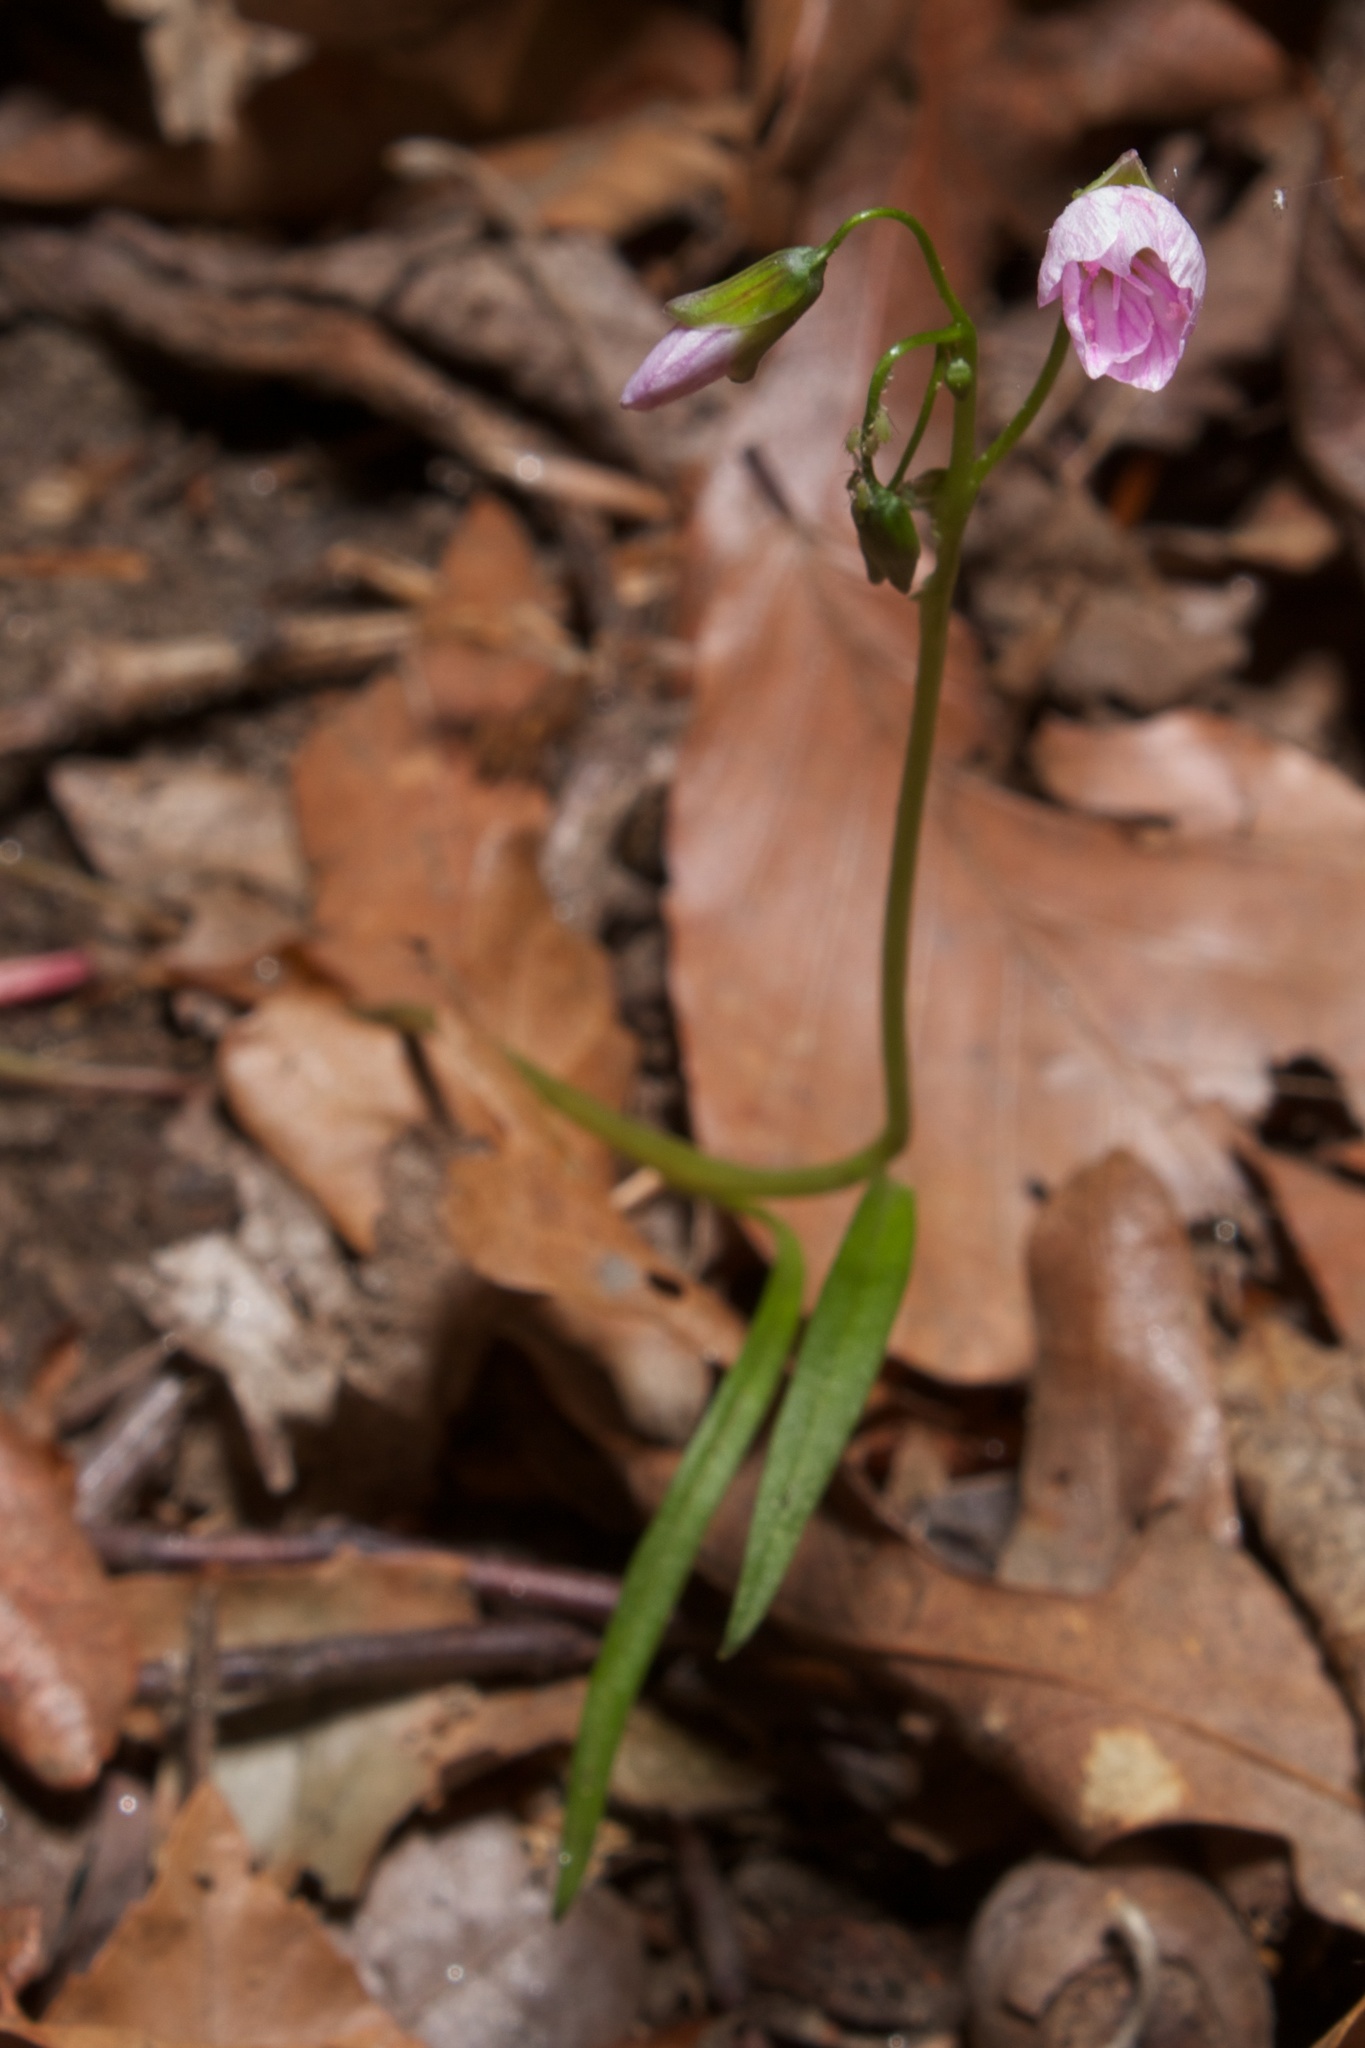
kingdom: Plantae
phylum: Tracheophyta
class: Magnoliopsida
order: Caryophyllales
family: Montiaceae
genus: Claytonia
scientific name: Claytonia virginica
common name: Virginia springbeauty
